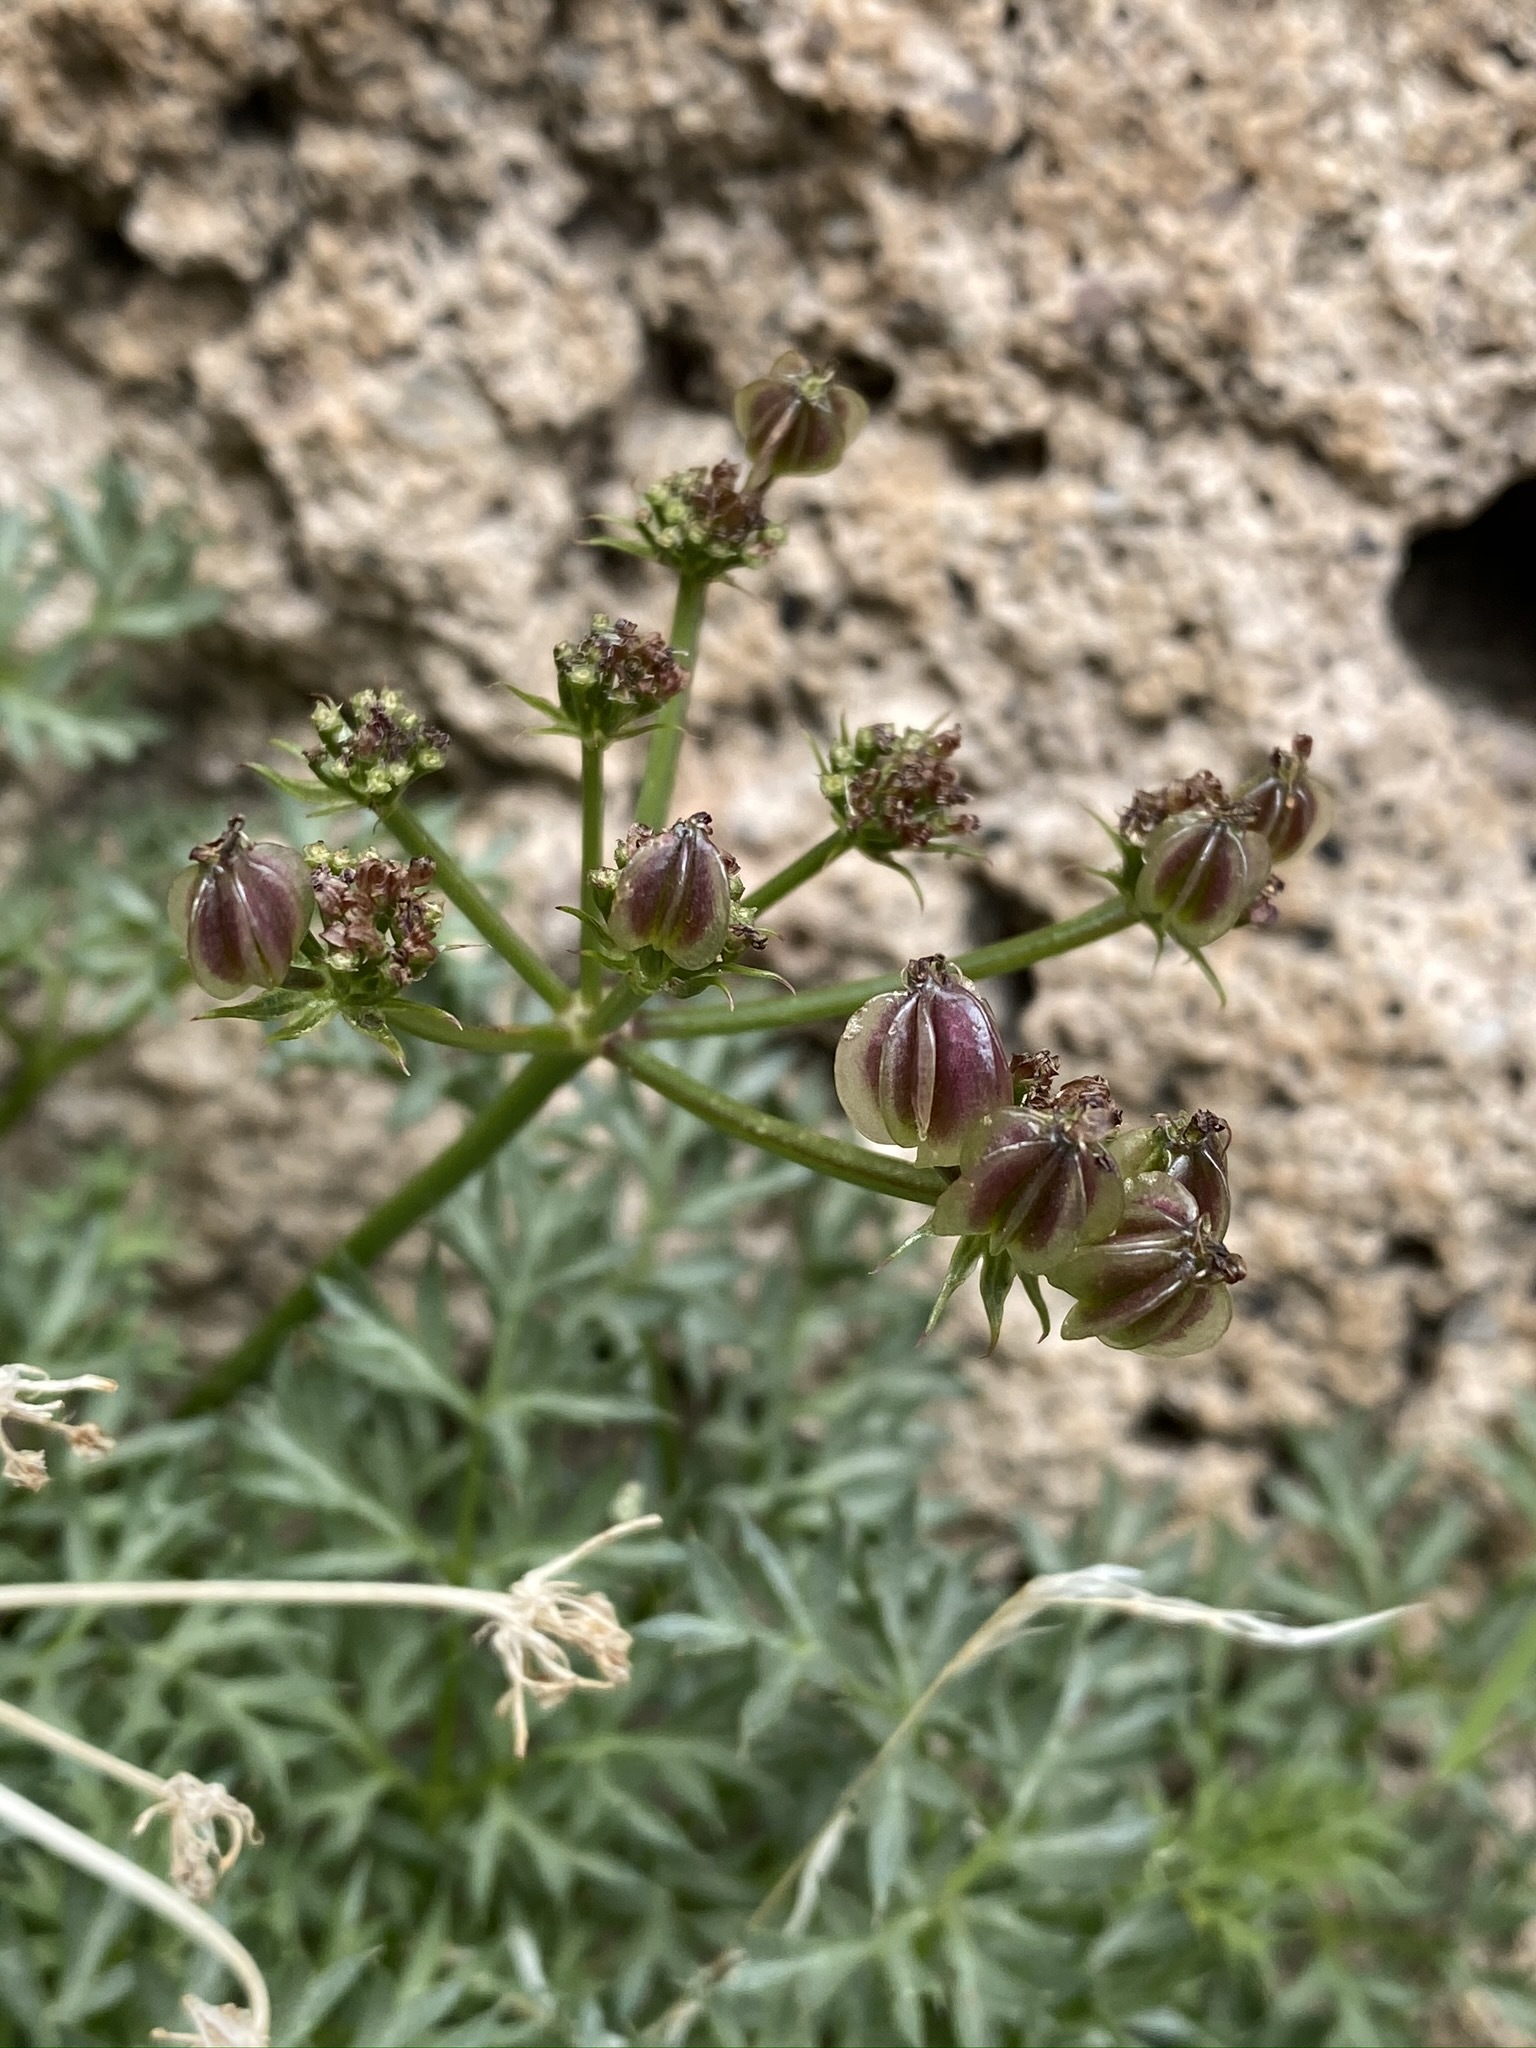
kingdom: Plantae
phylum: Tracheophyta
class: Magnoliopsida
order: Apiales
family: Apiaceae
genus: Aulospermum
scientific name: Aulospermum panamintense
